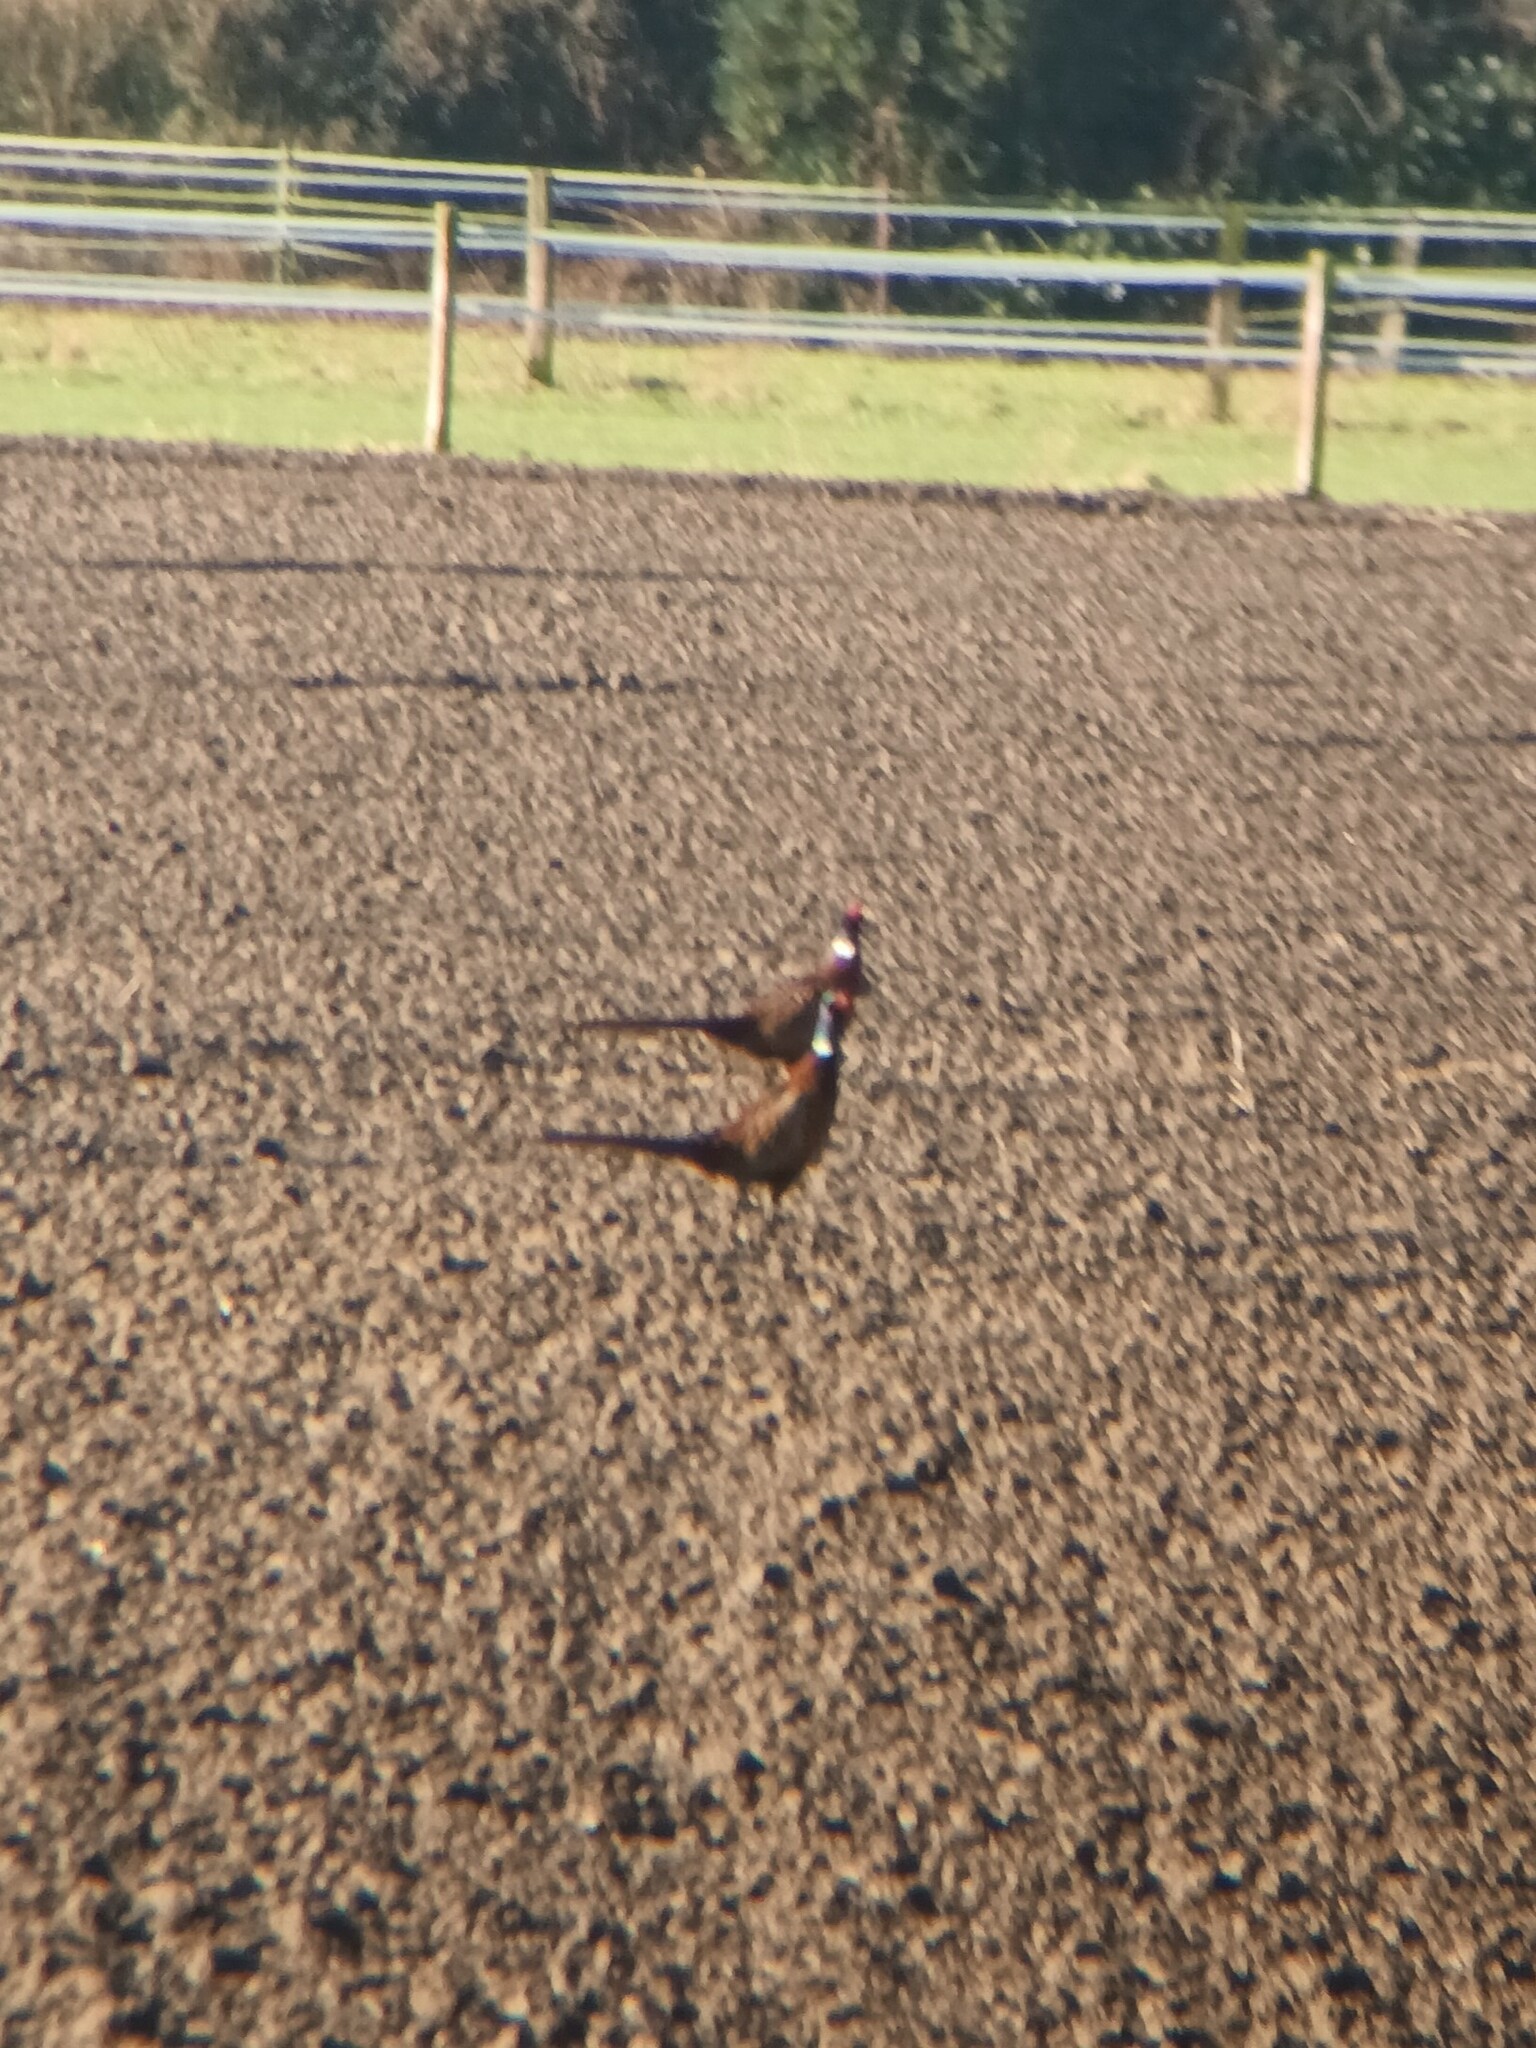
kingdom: Animalia
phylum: Chordata
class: Aves
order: Galliformes
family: Phasianidae
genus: Phasianus
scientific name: Phasianus colchicus
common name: Common pheasant
